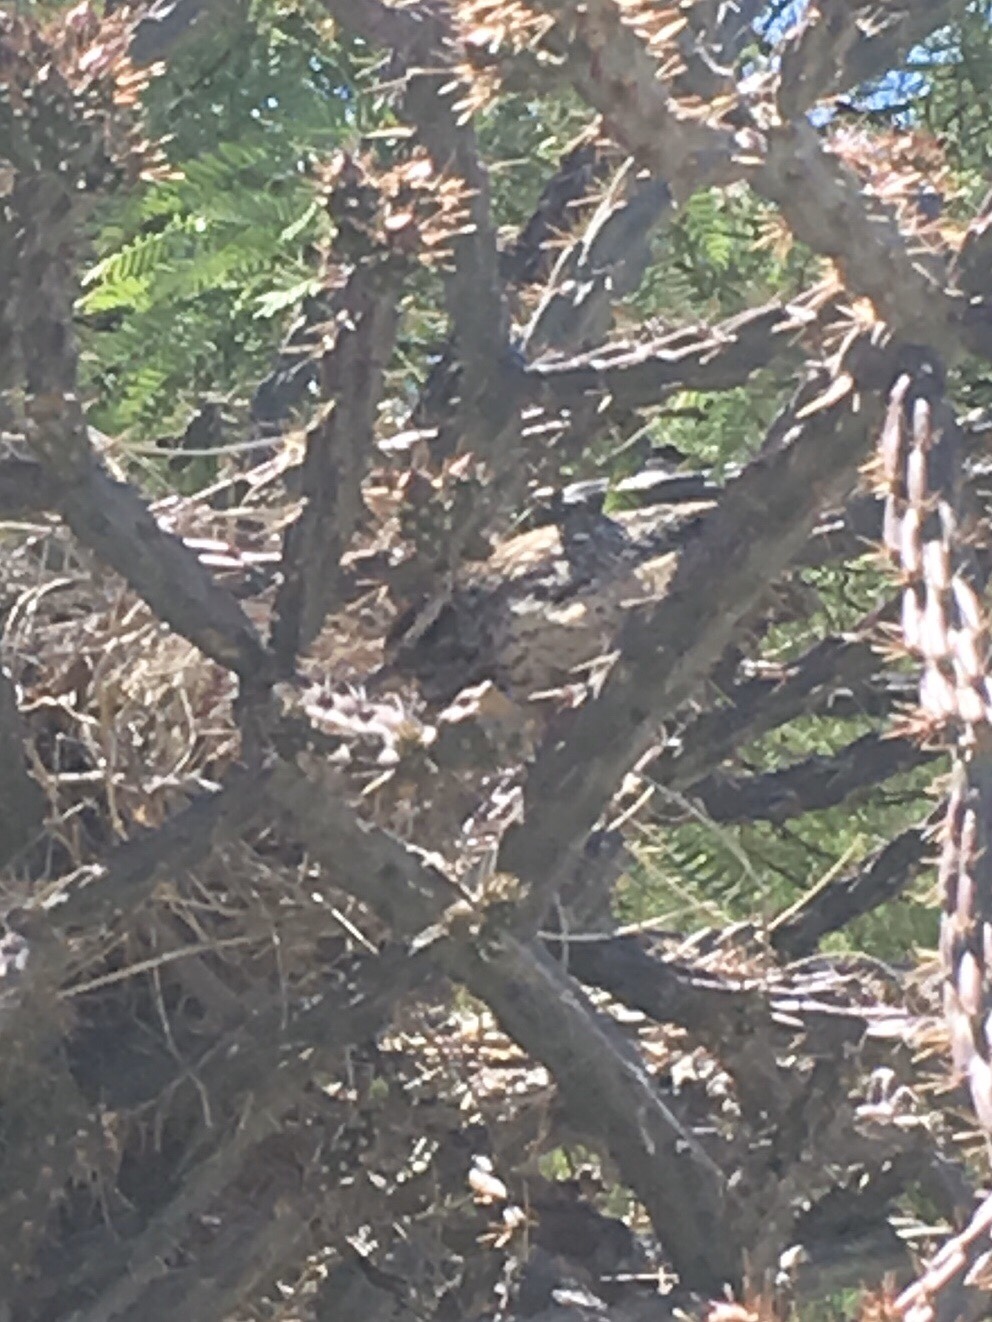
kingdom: Animalia
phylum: Chordata
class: Aves
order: Passeriformes
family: Troglodytidae
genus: Campylorhynchus
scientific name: Campylorhynchus brunneicapillus
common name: Cactus wren
